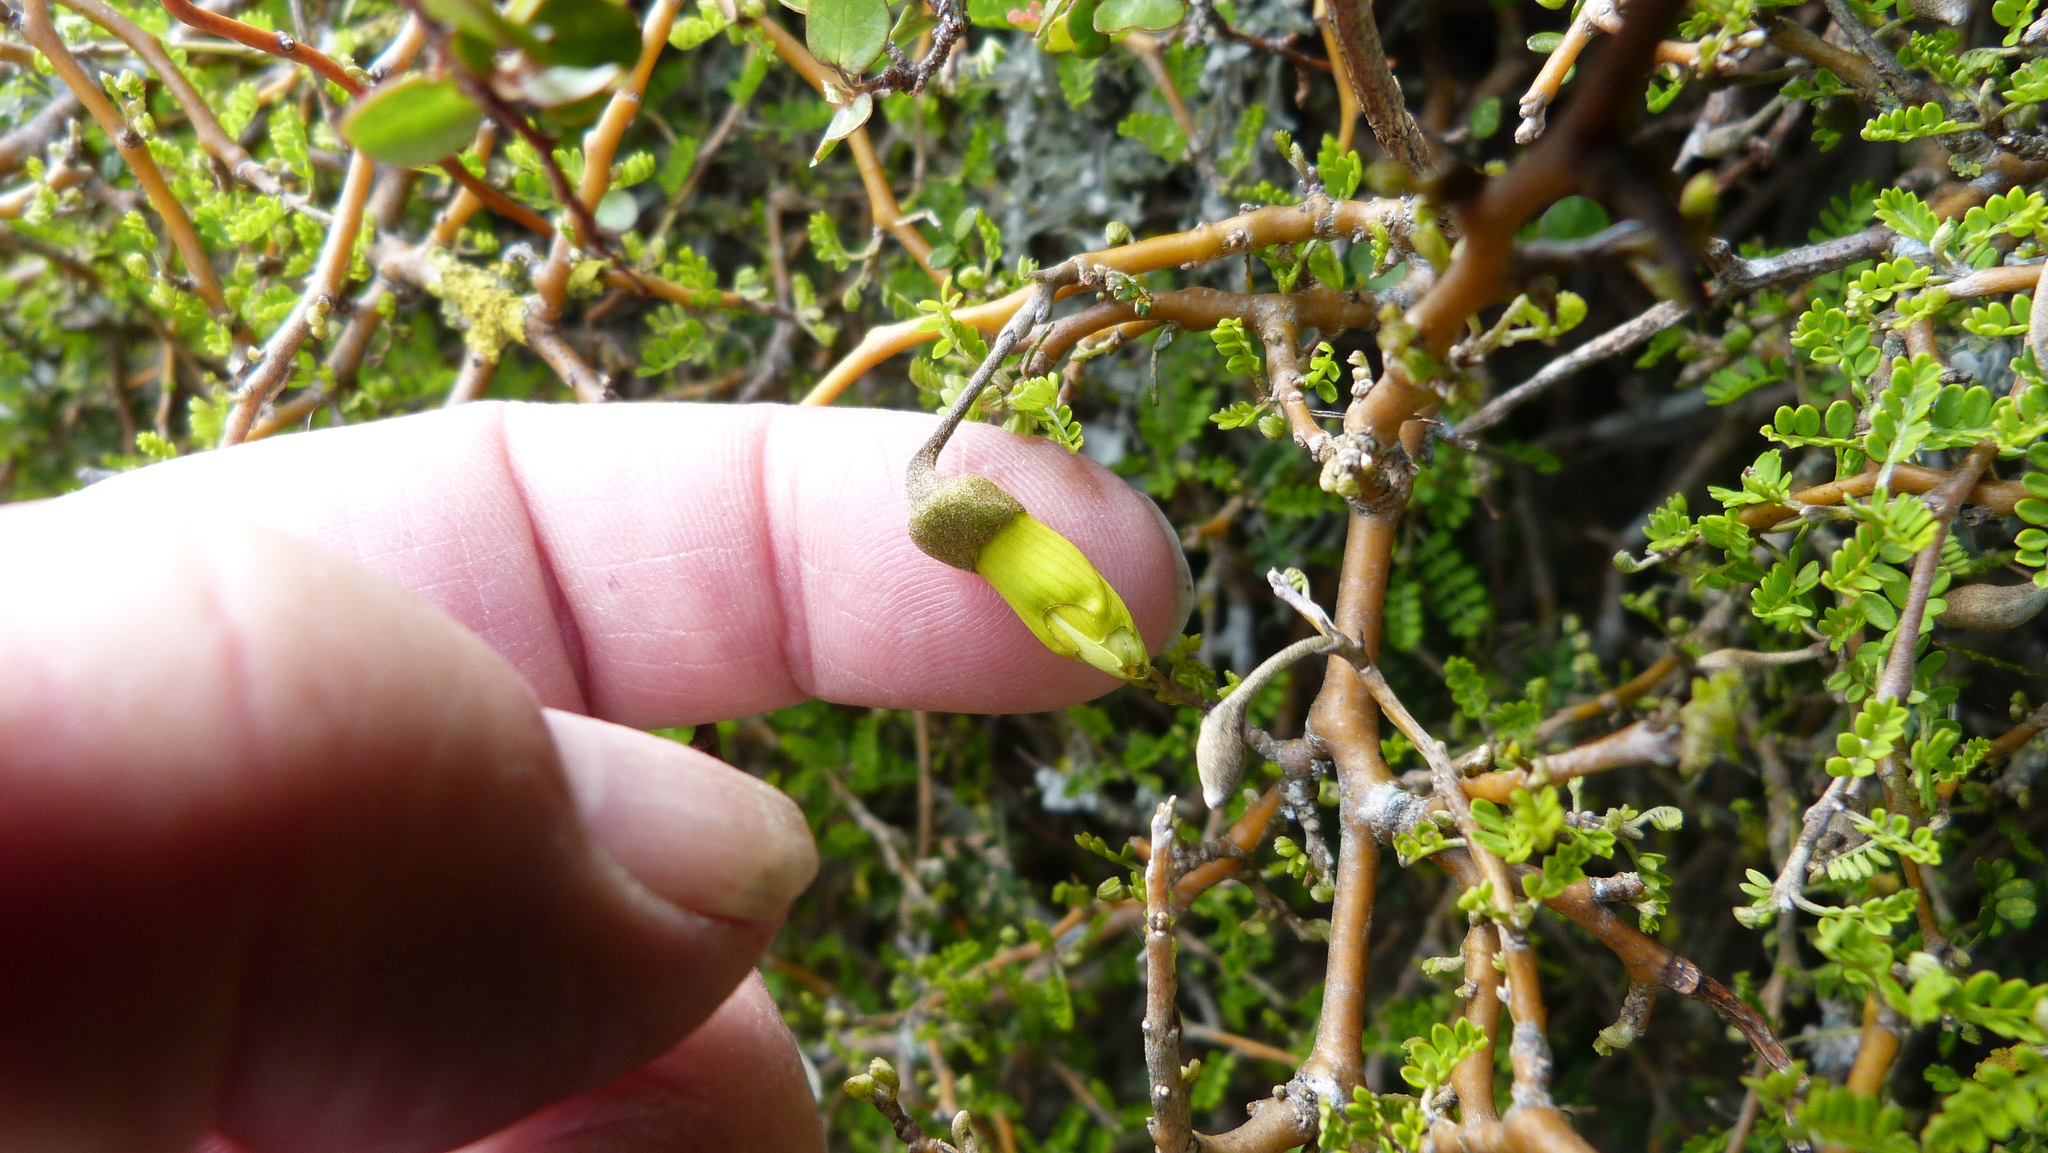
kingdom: Plantae
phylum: Tracheophyta
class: Magnoliopsida
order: Fabales
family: Fabaceae
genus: Sophora
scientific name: Sophora prostrata
